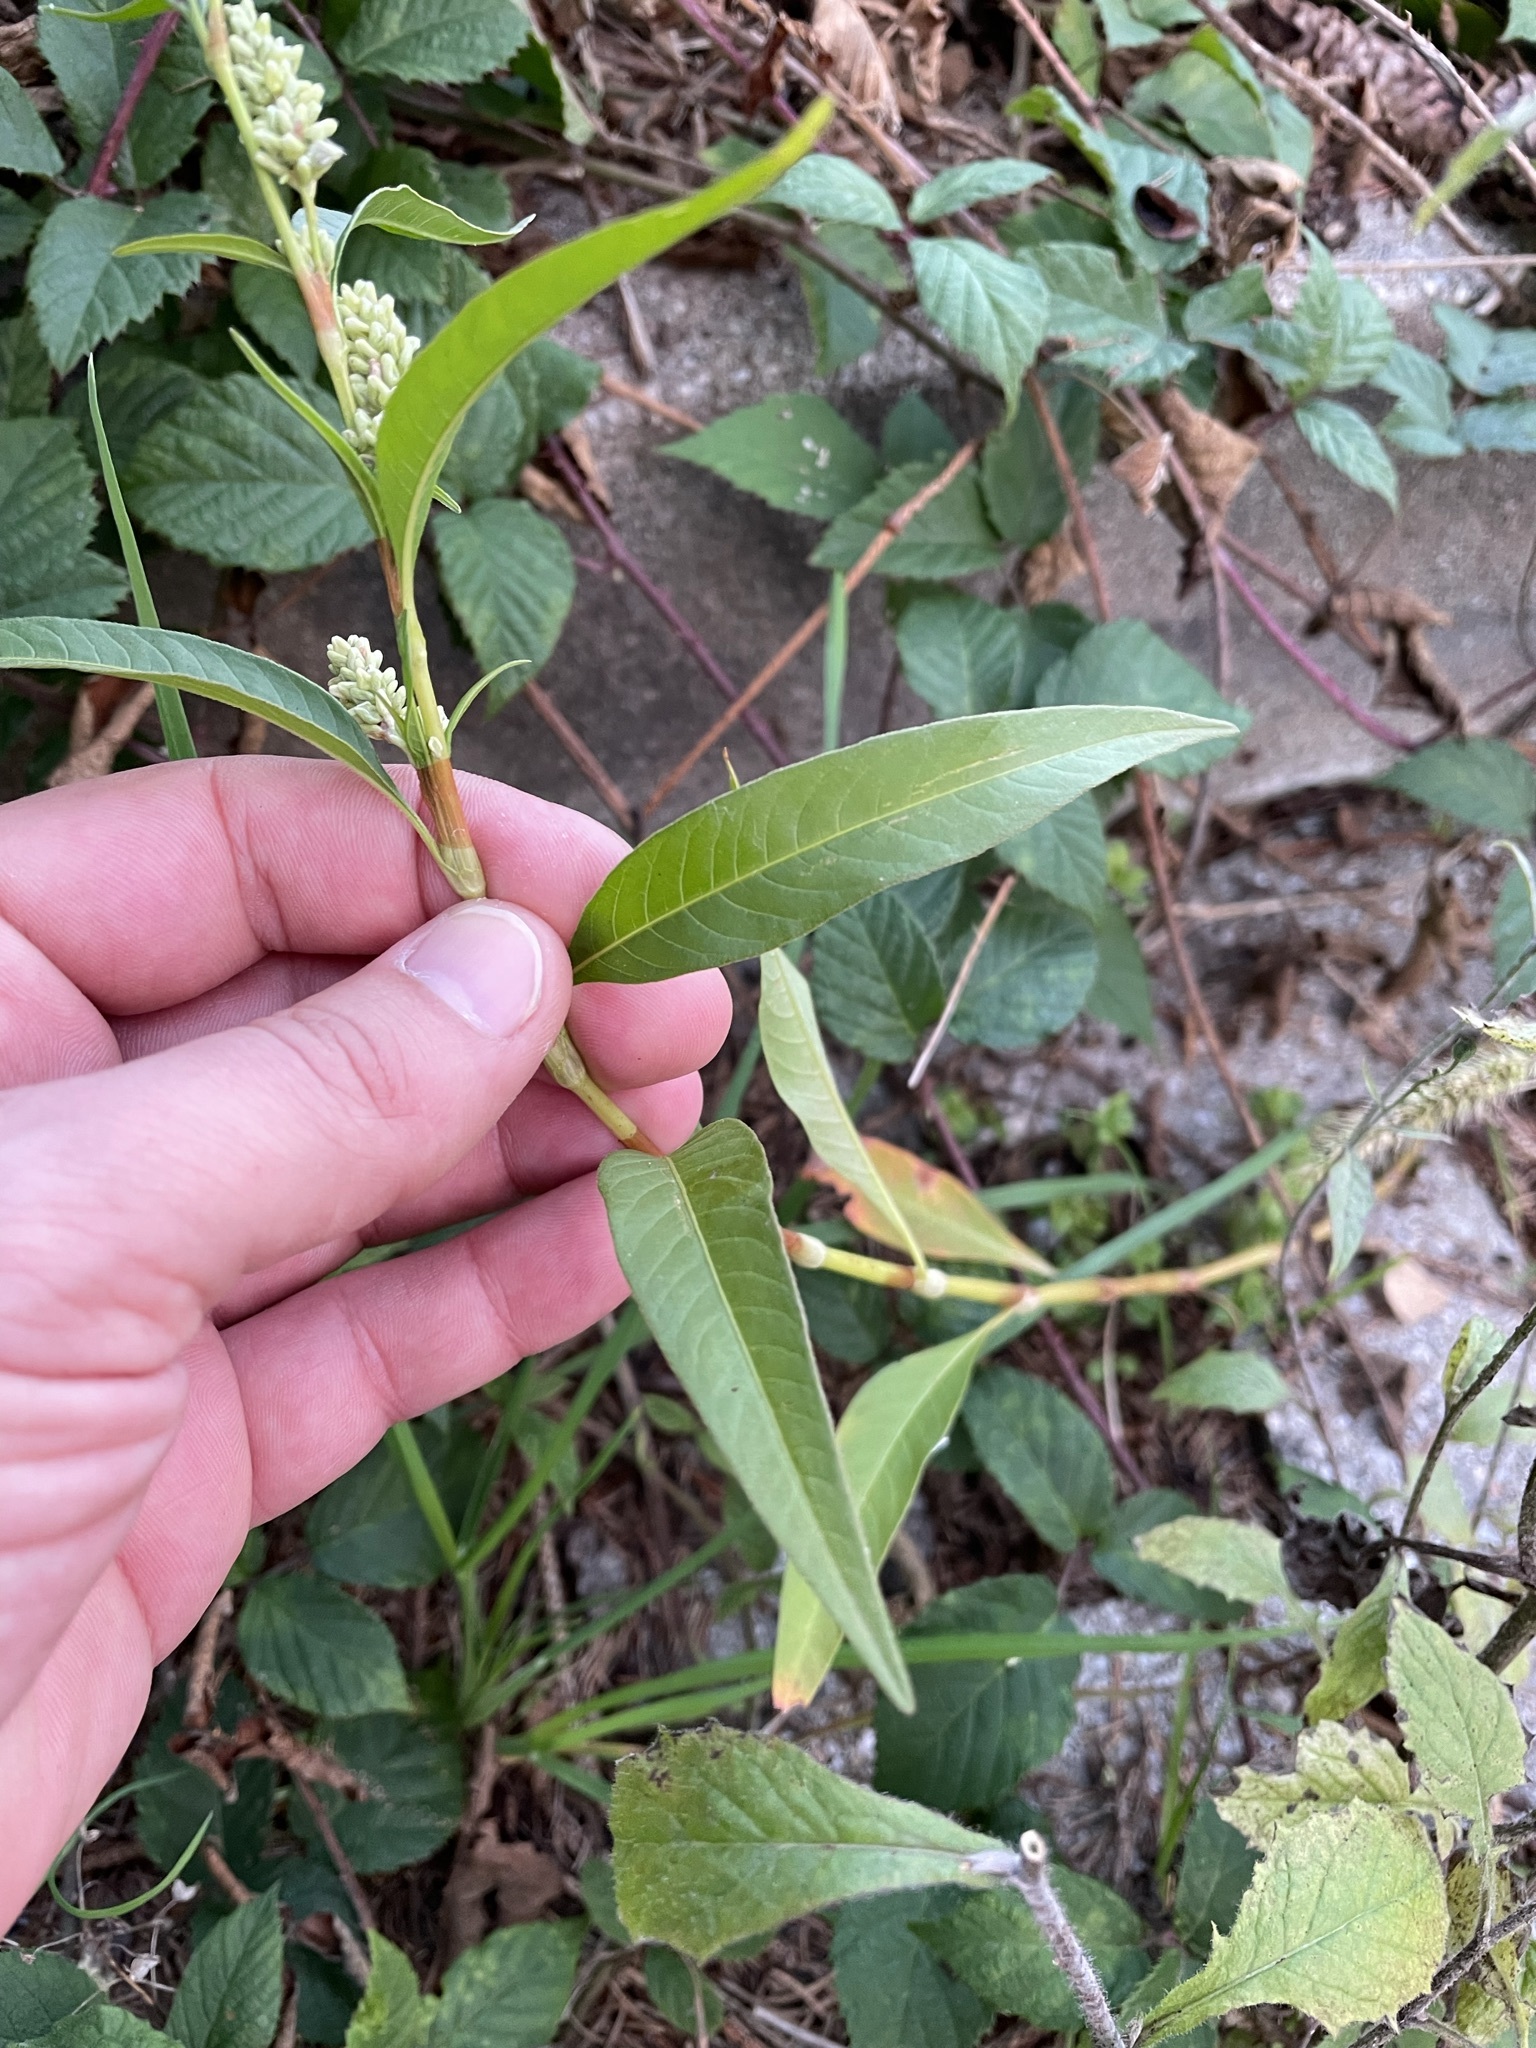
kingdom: Plantae
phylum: Tracheophyta
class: Magnoliopsida
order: Caryophyllales
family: Polygonaceae
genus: Persicaria
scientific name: Persicaria lapathifolia
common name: Curlytop knotweed
